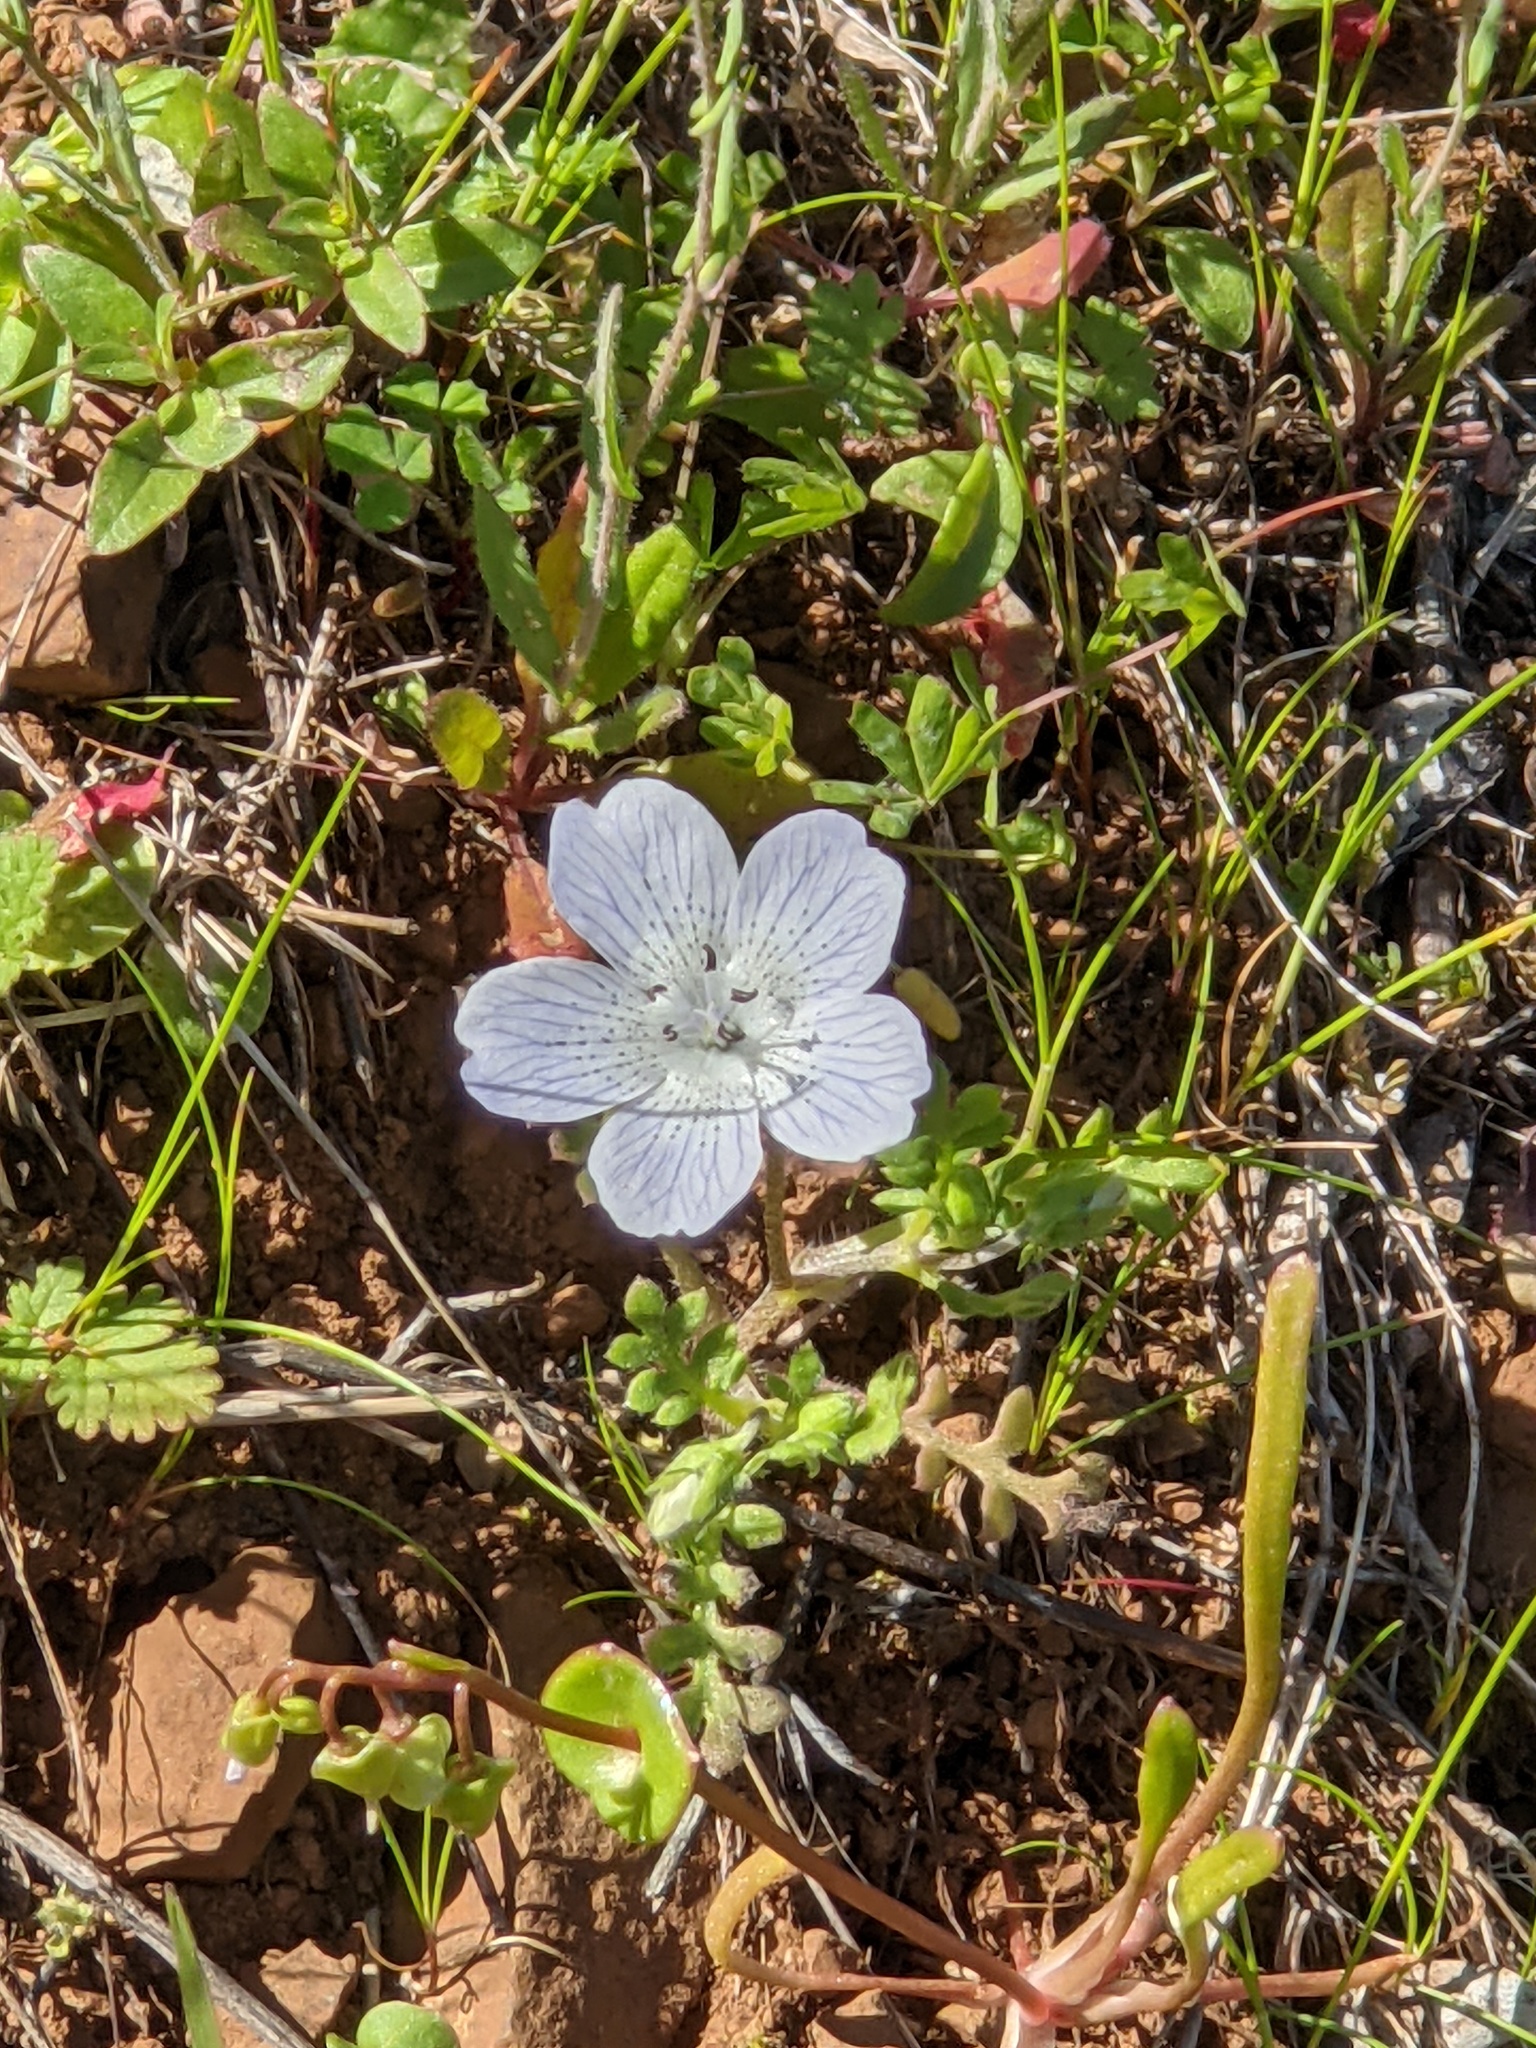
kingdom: Plantae
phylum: Tracheophyta
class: Magnoliopsida
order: Boraginales
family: Hydrophyllaceae
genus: Nemophila
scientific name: Nemophila menziesii
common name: Baby's-blue-eyes
